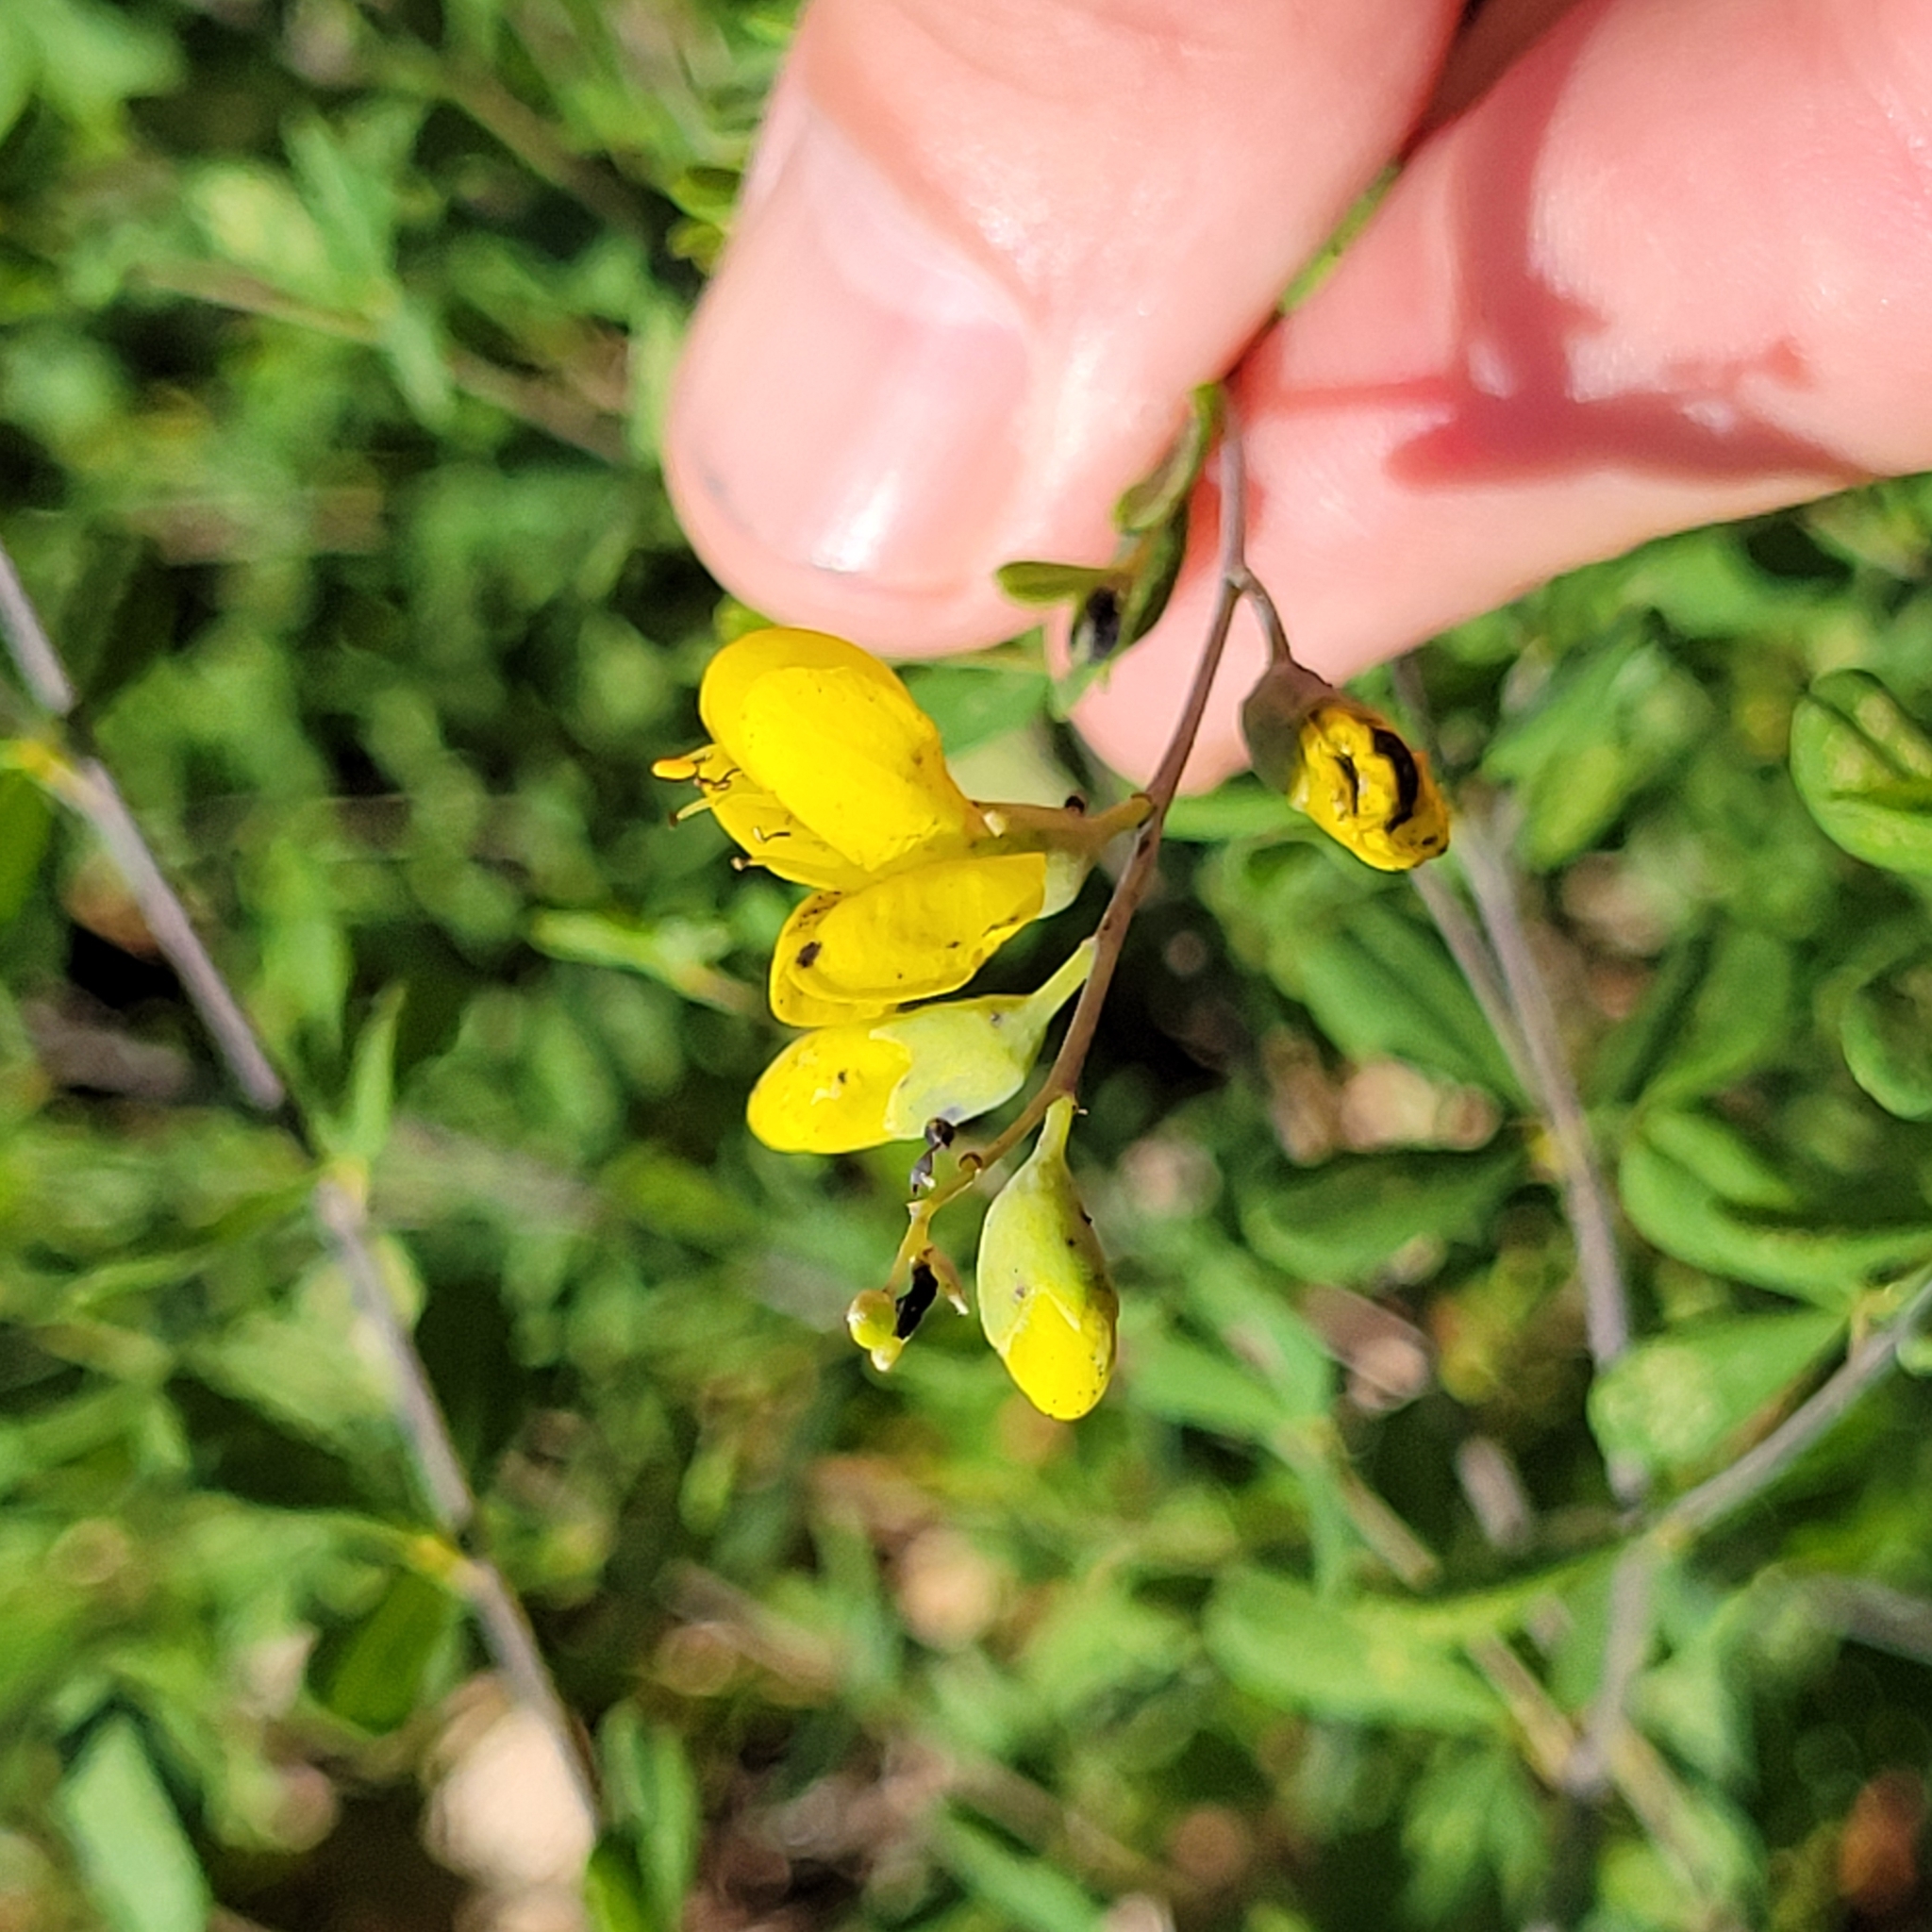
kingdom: Plantae
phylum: Tracheophyta
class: Magnoliopsida
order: Fabales
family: Fabaceae
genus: Baptisia
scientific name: Baptisia tinctoria
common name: Wild indigo
